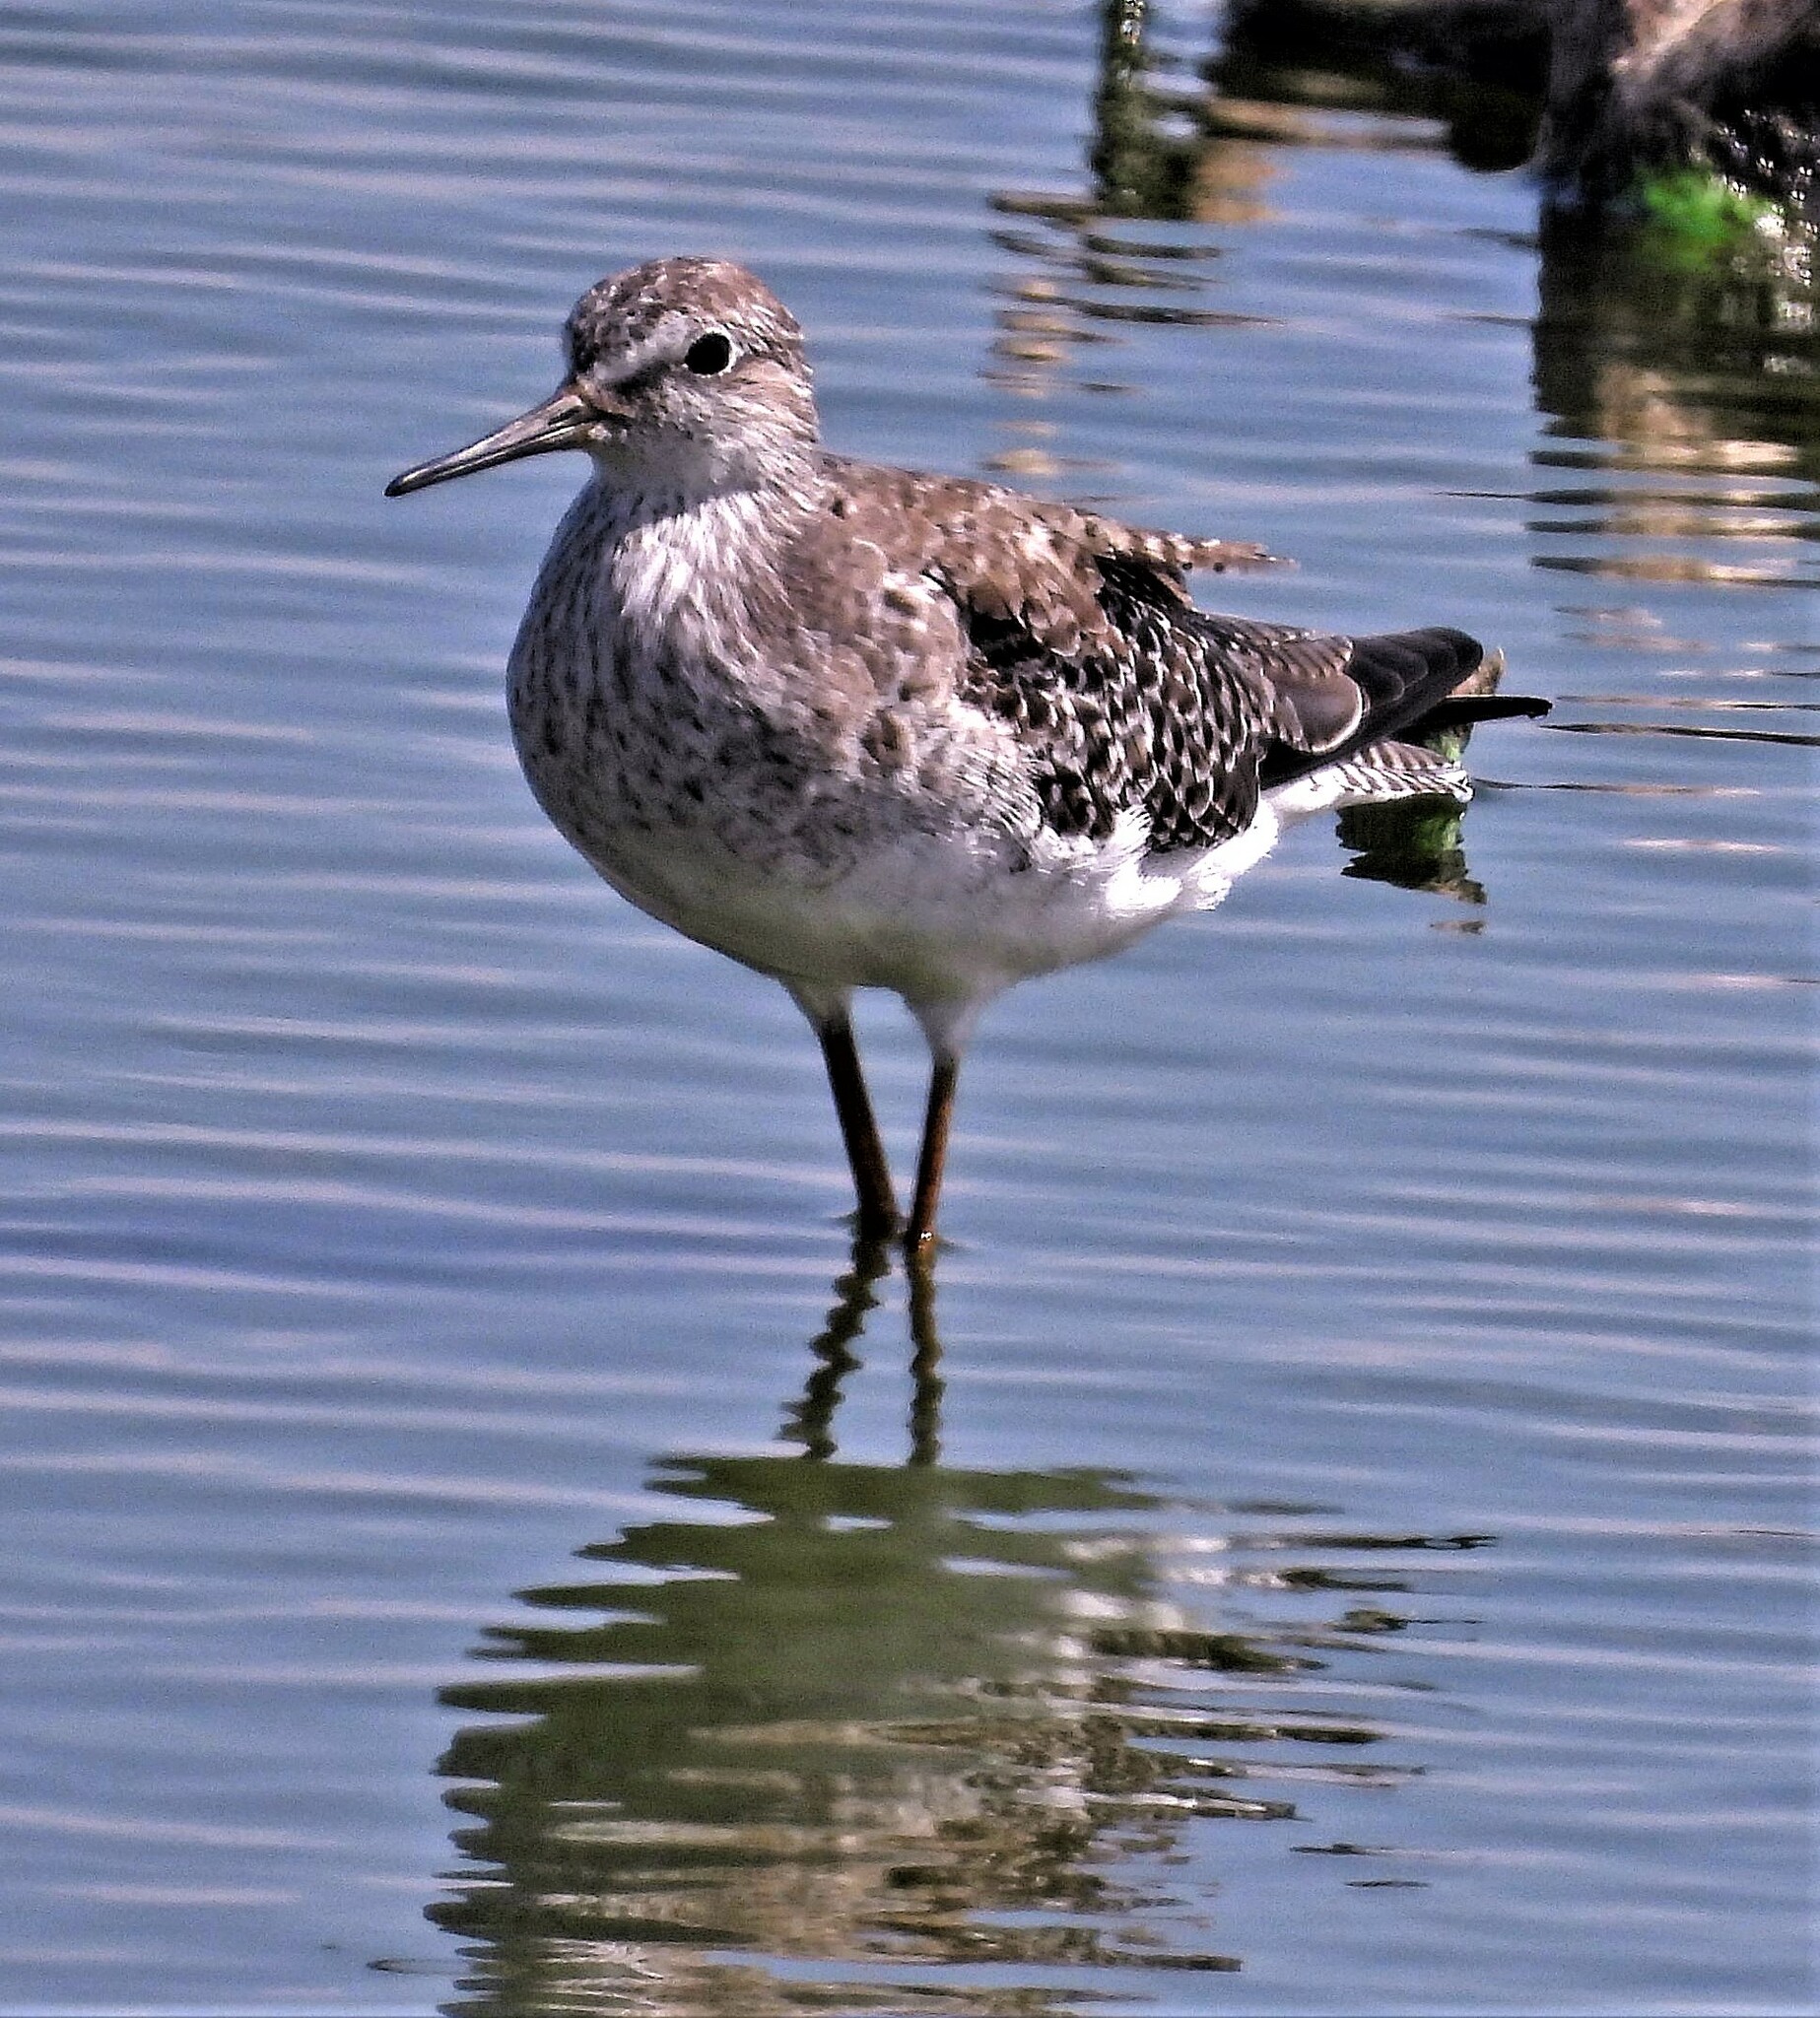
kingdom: Animalia
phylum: Chordata
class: Aves
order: Charadriiformes
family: Scolopacidae
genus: Tringa
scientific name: Tringa flavipes
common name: Lesser yellowlegs
